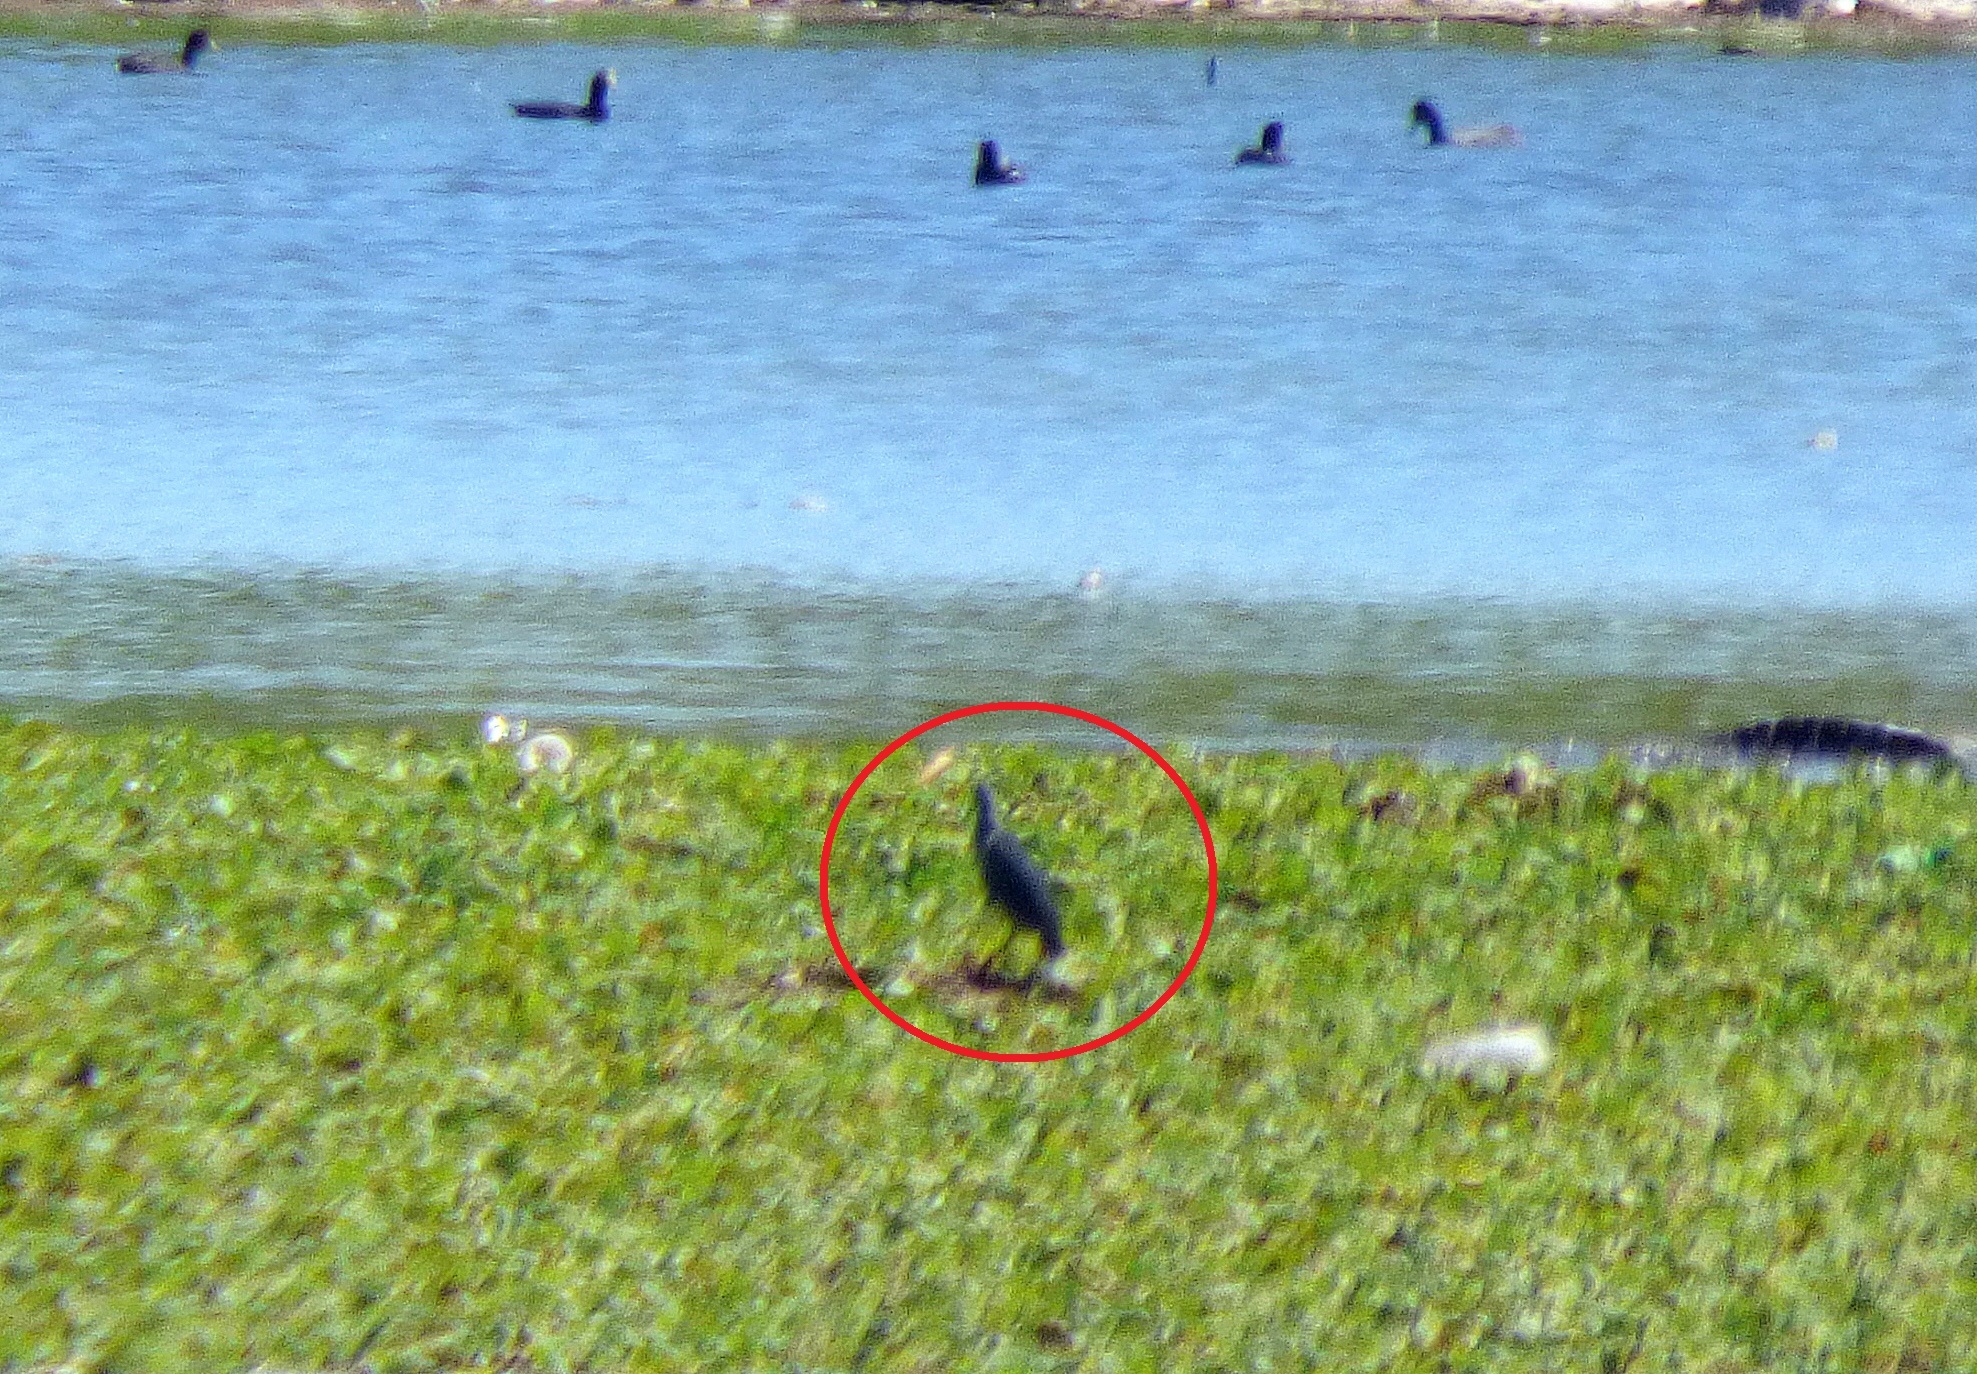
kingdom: Animalia
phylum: Chordata
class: Aves
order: Pelecaniformes
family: Ardeidae
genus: Egretta
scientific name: Egretta caerulea
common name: Little blue heron
